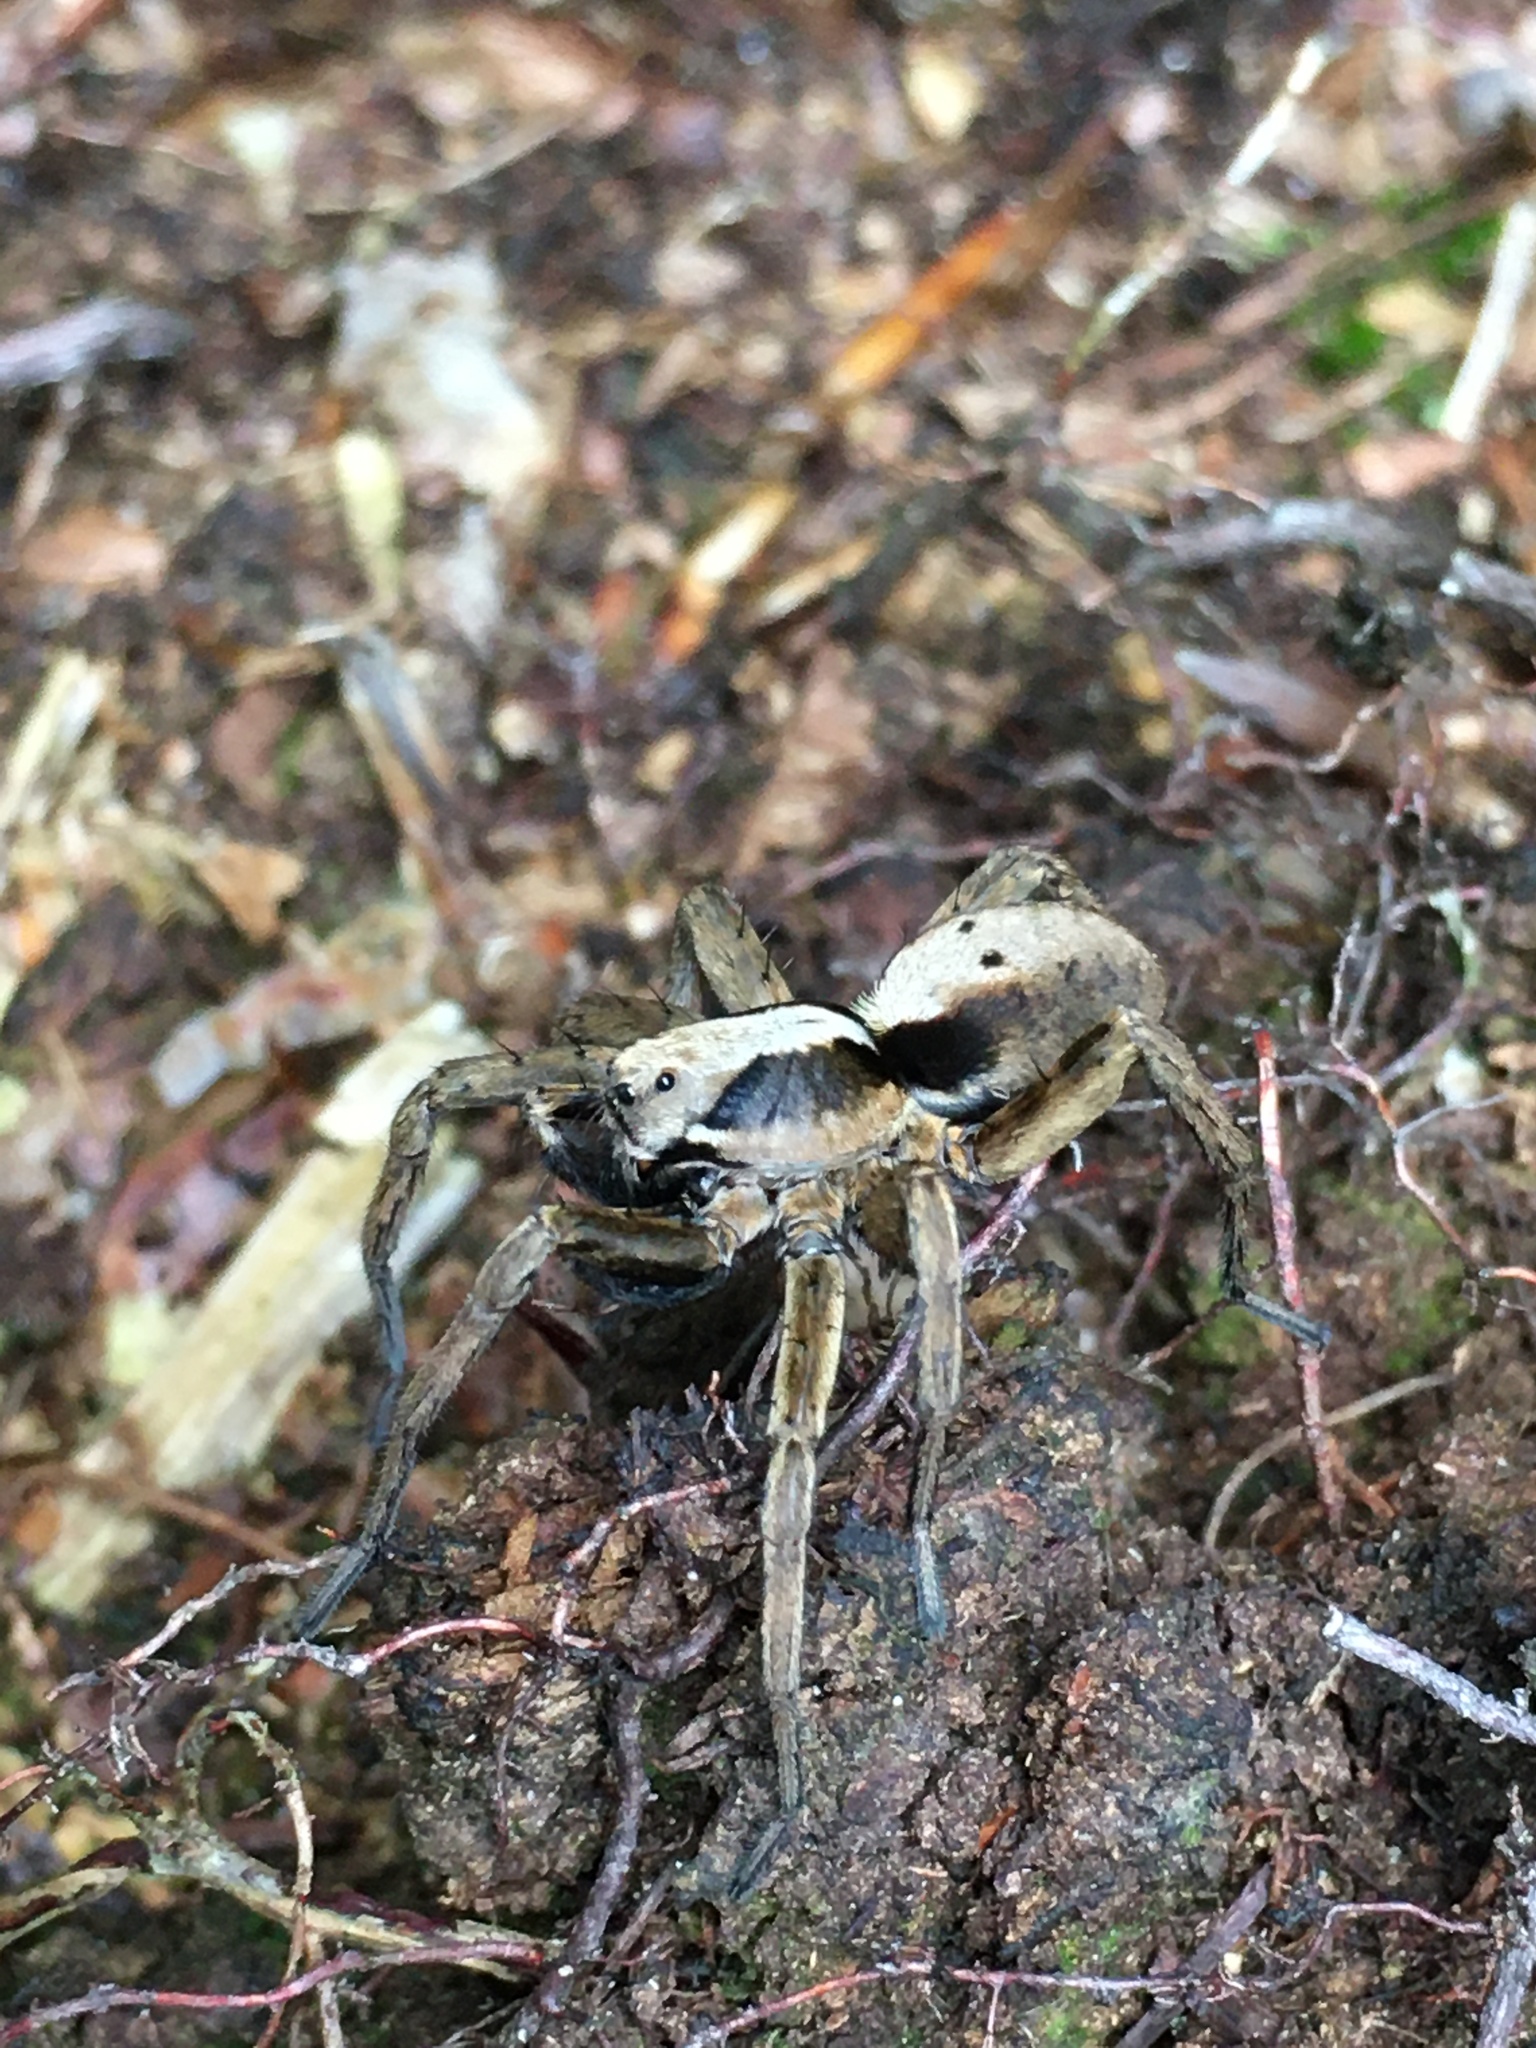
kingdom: Animalia
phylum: Arthropoda
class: Arachnida
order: Araneae
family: Lycosidae
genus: Alopecosa
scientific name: Alopecosa inquilina
